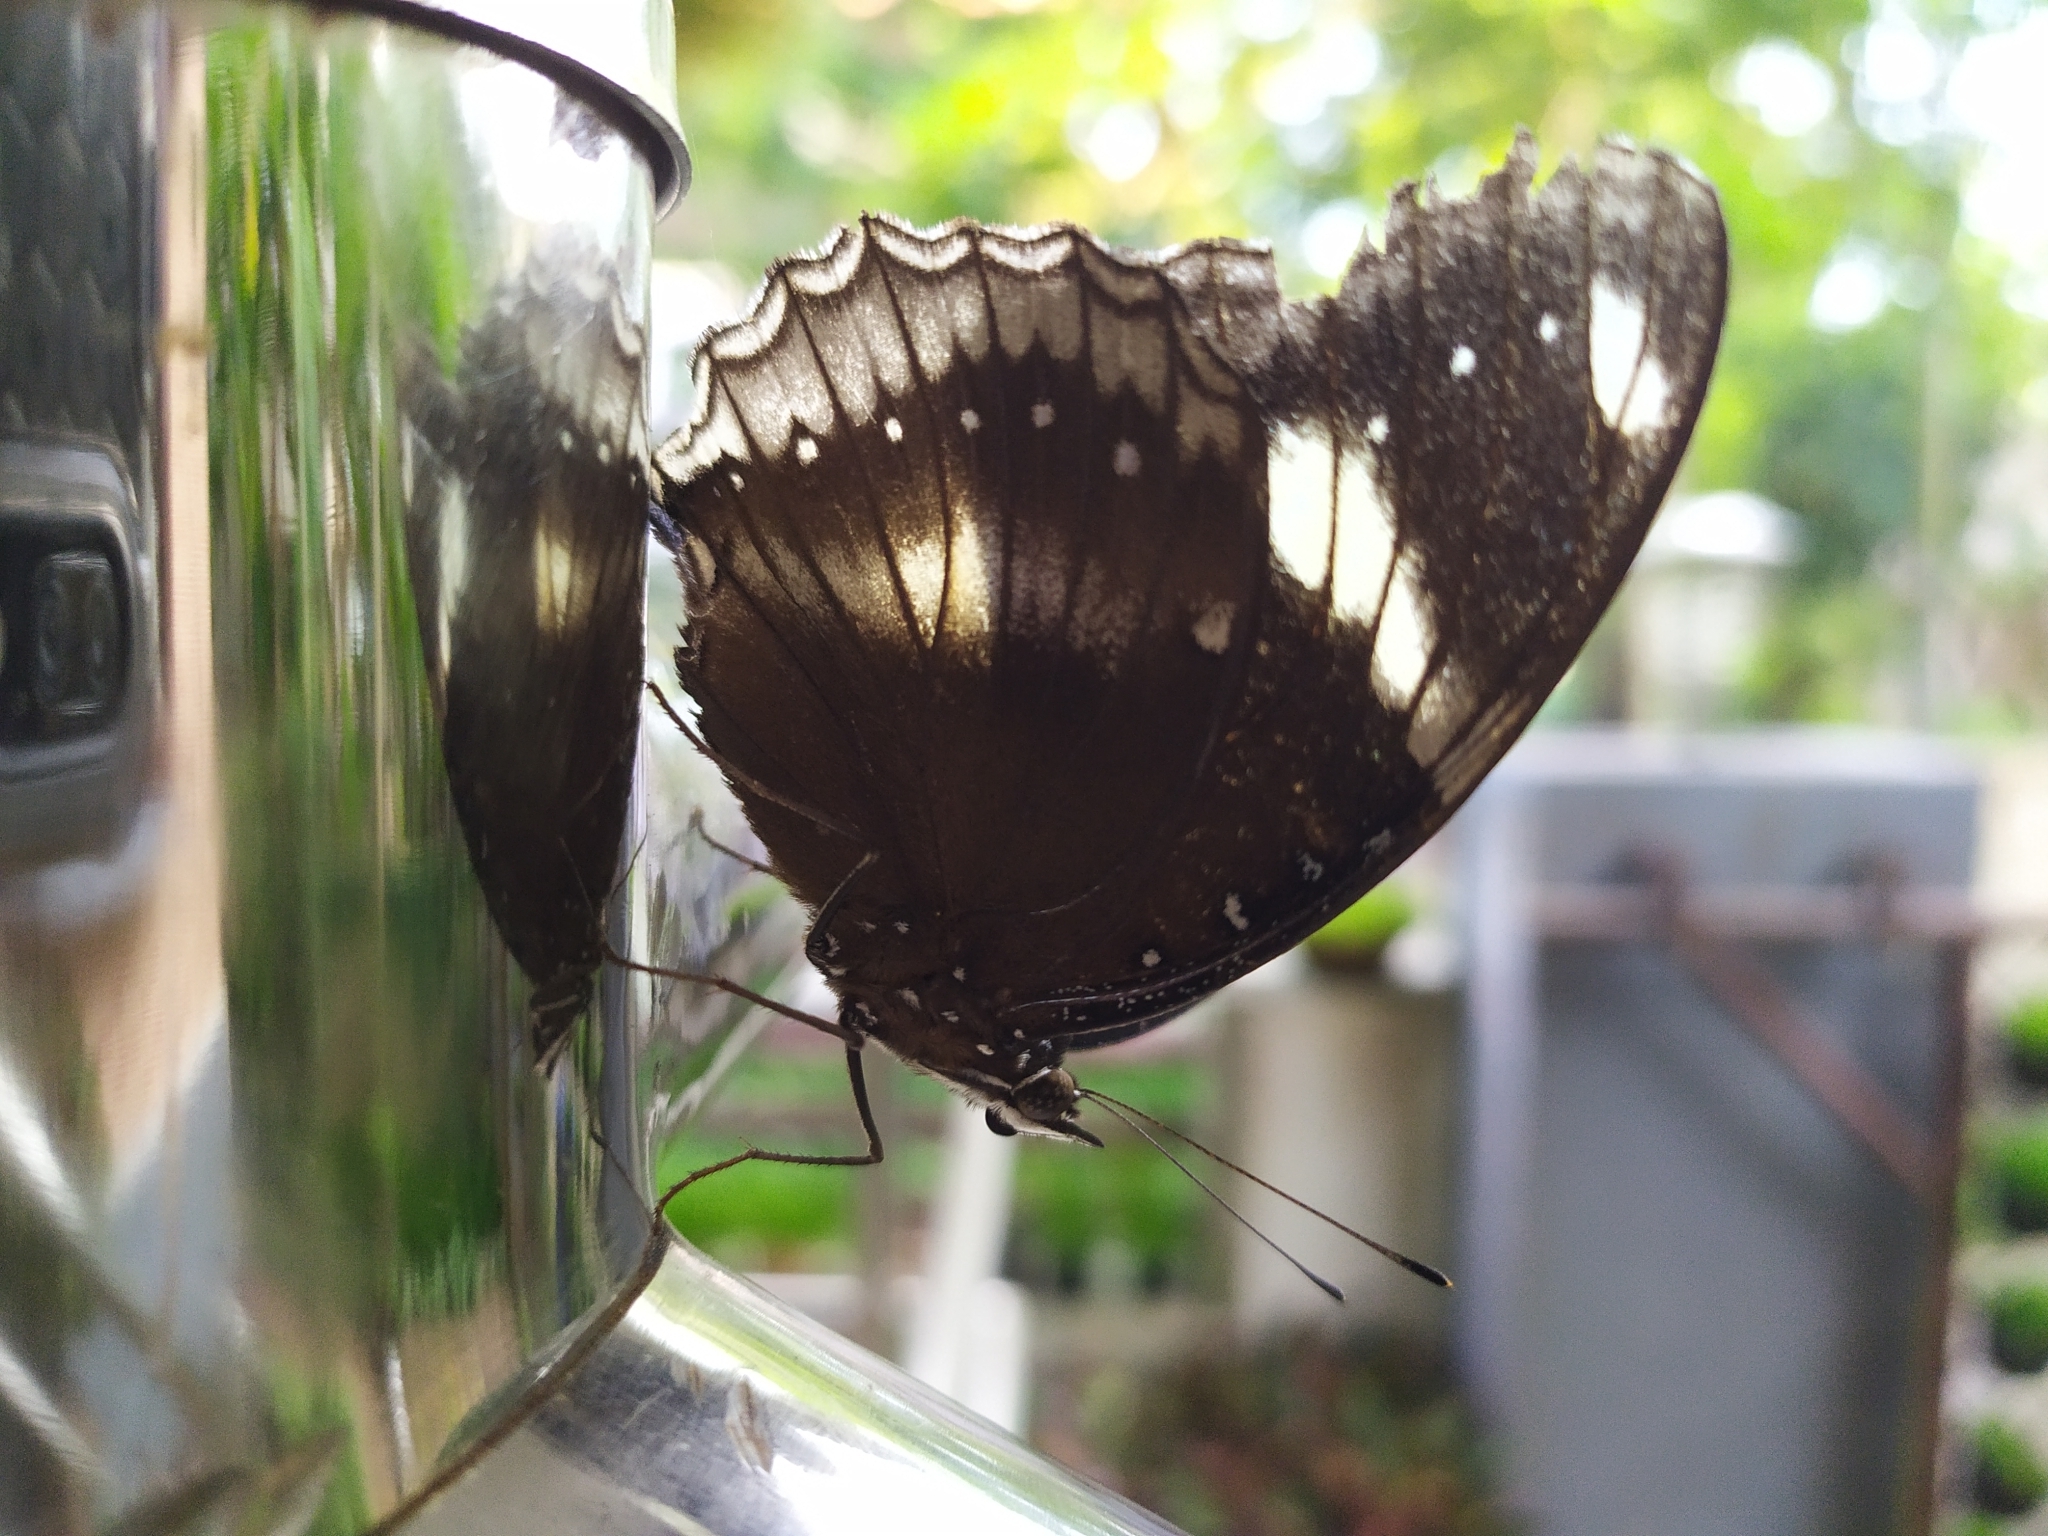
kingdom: Animalia
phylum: Arthropoda
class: Insecta
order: Lepidoptera
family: Nymphalidae
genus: Hypolimnas
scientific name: Hypolimnas bolina
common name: Great eggfly
